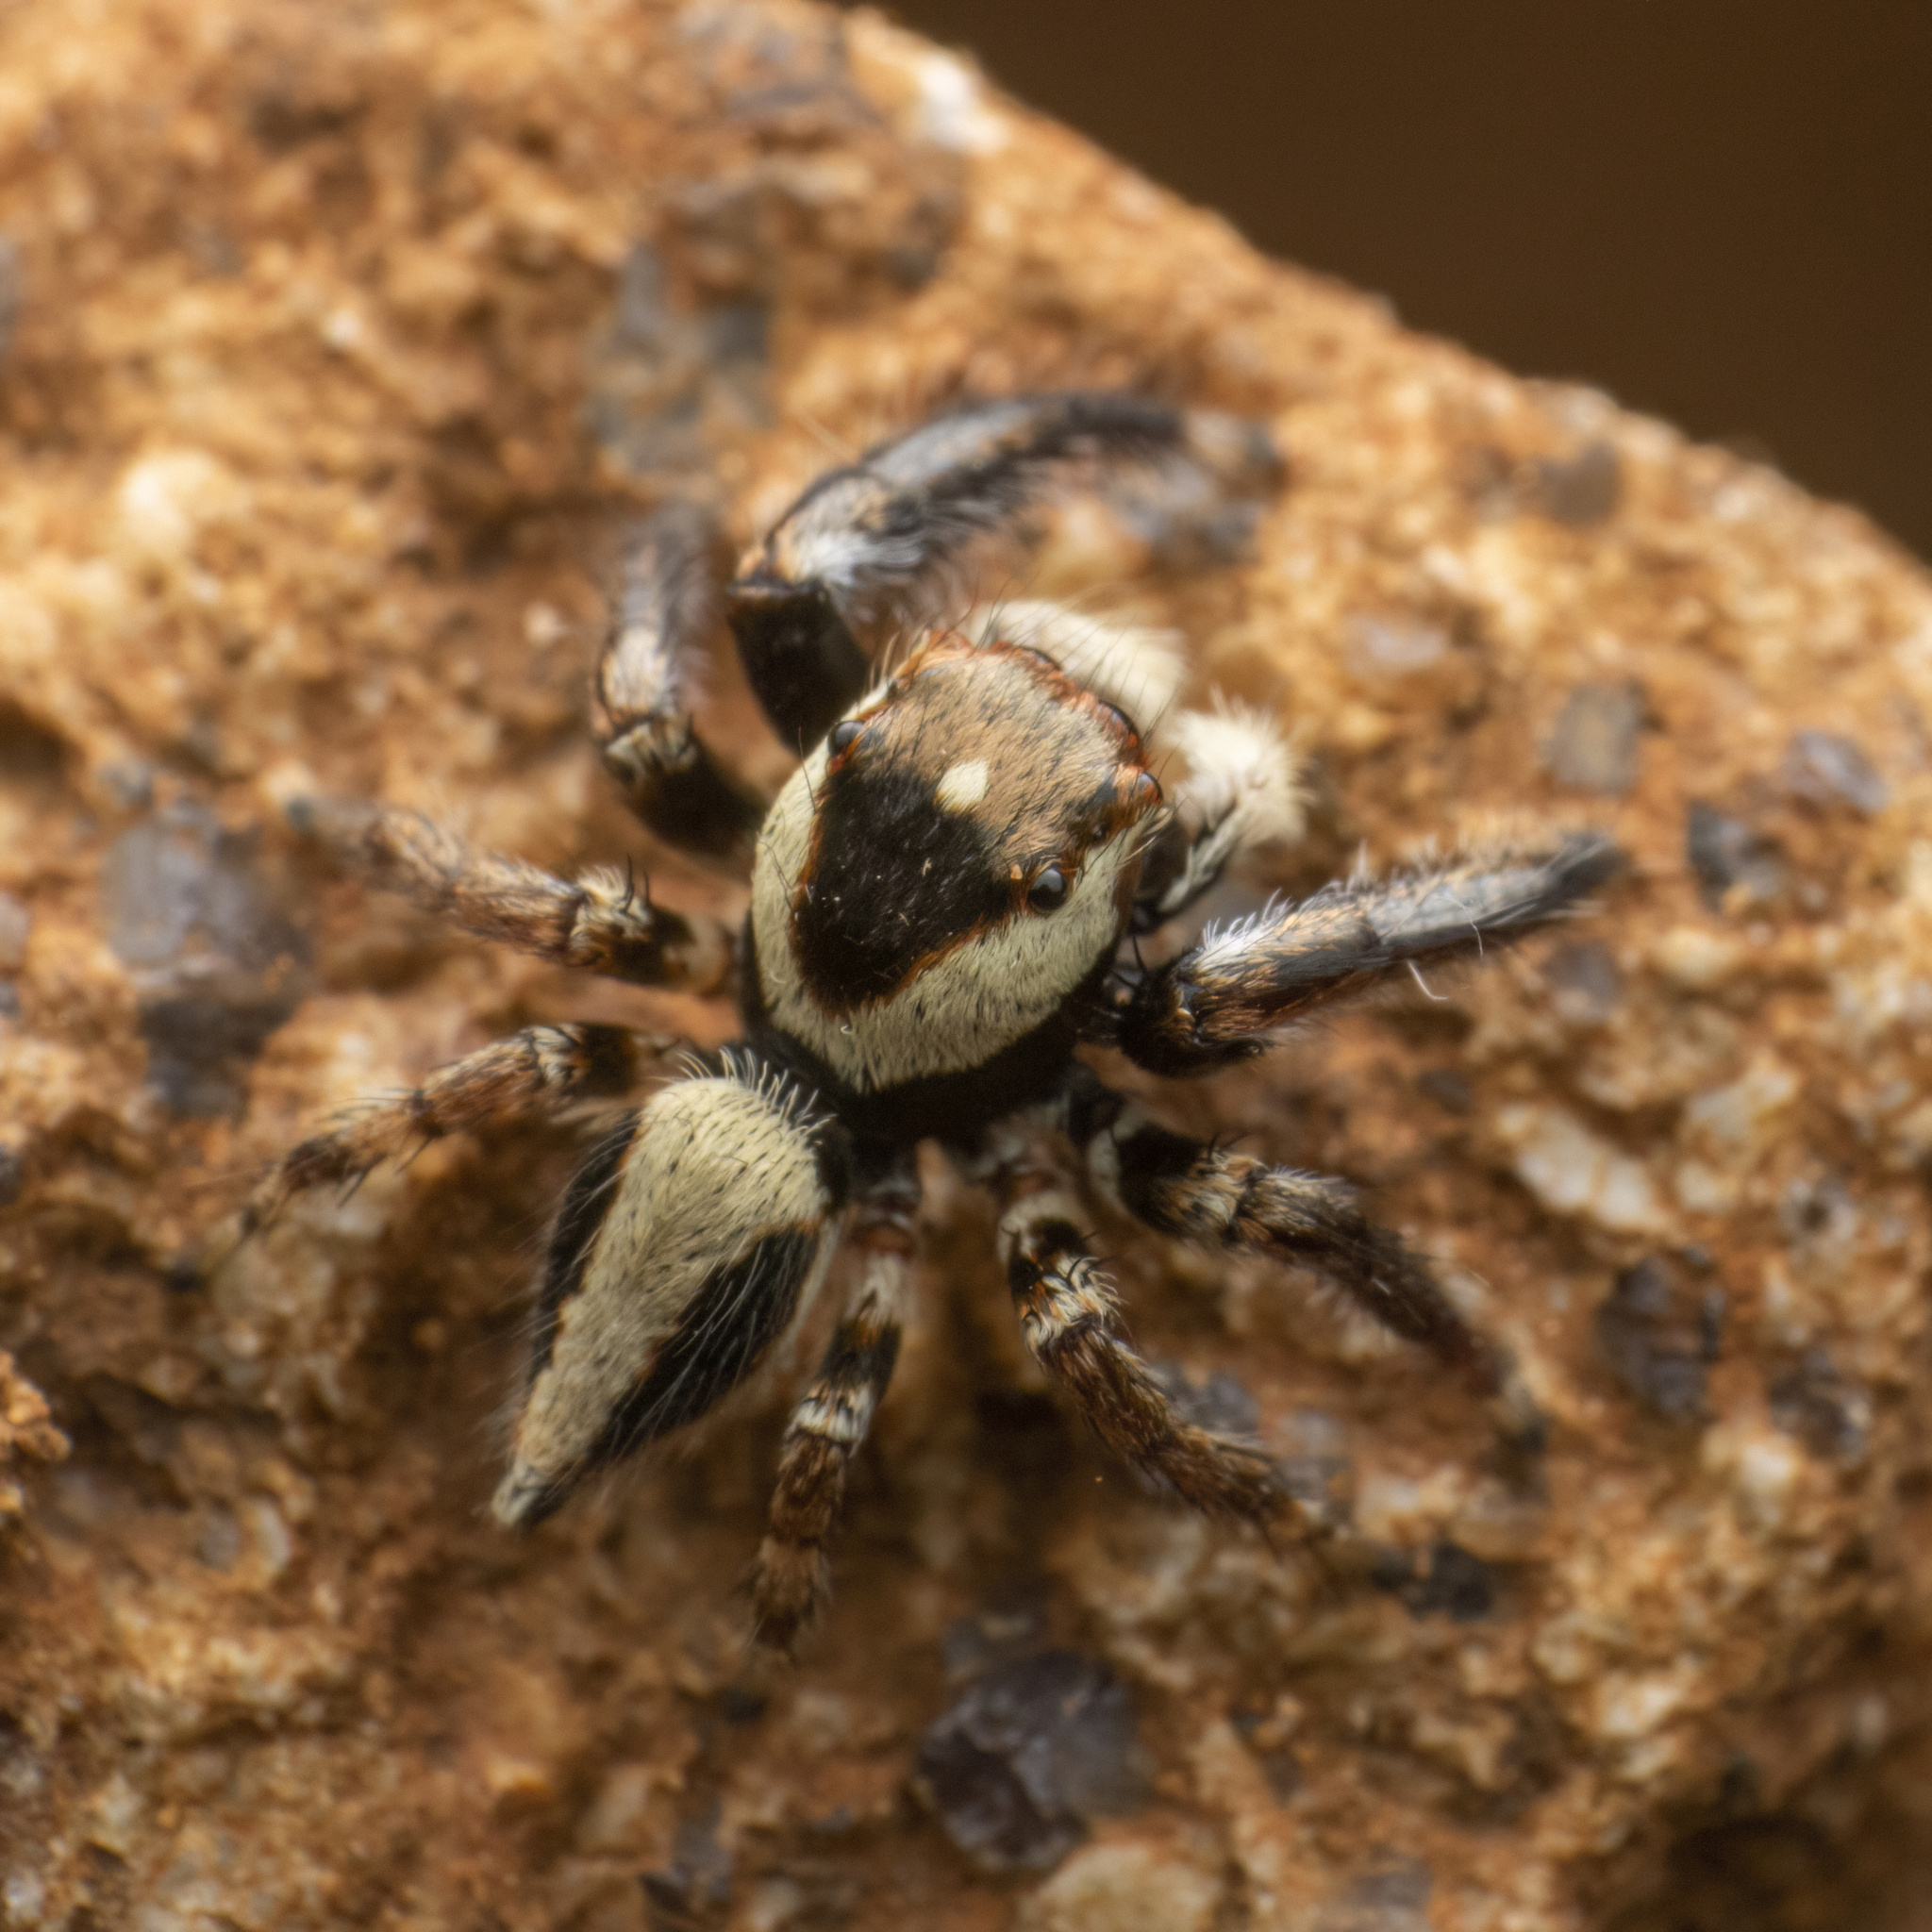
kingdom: Animalia
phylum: Arthropoda
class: Arachnida
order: Araneae
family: Salticidae
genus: Hyllus
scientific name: Hyllus manu
